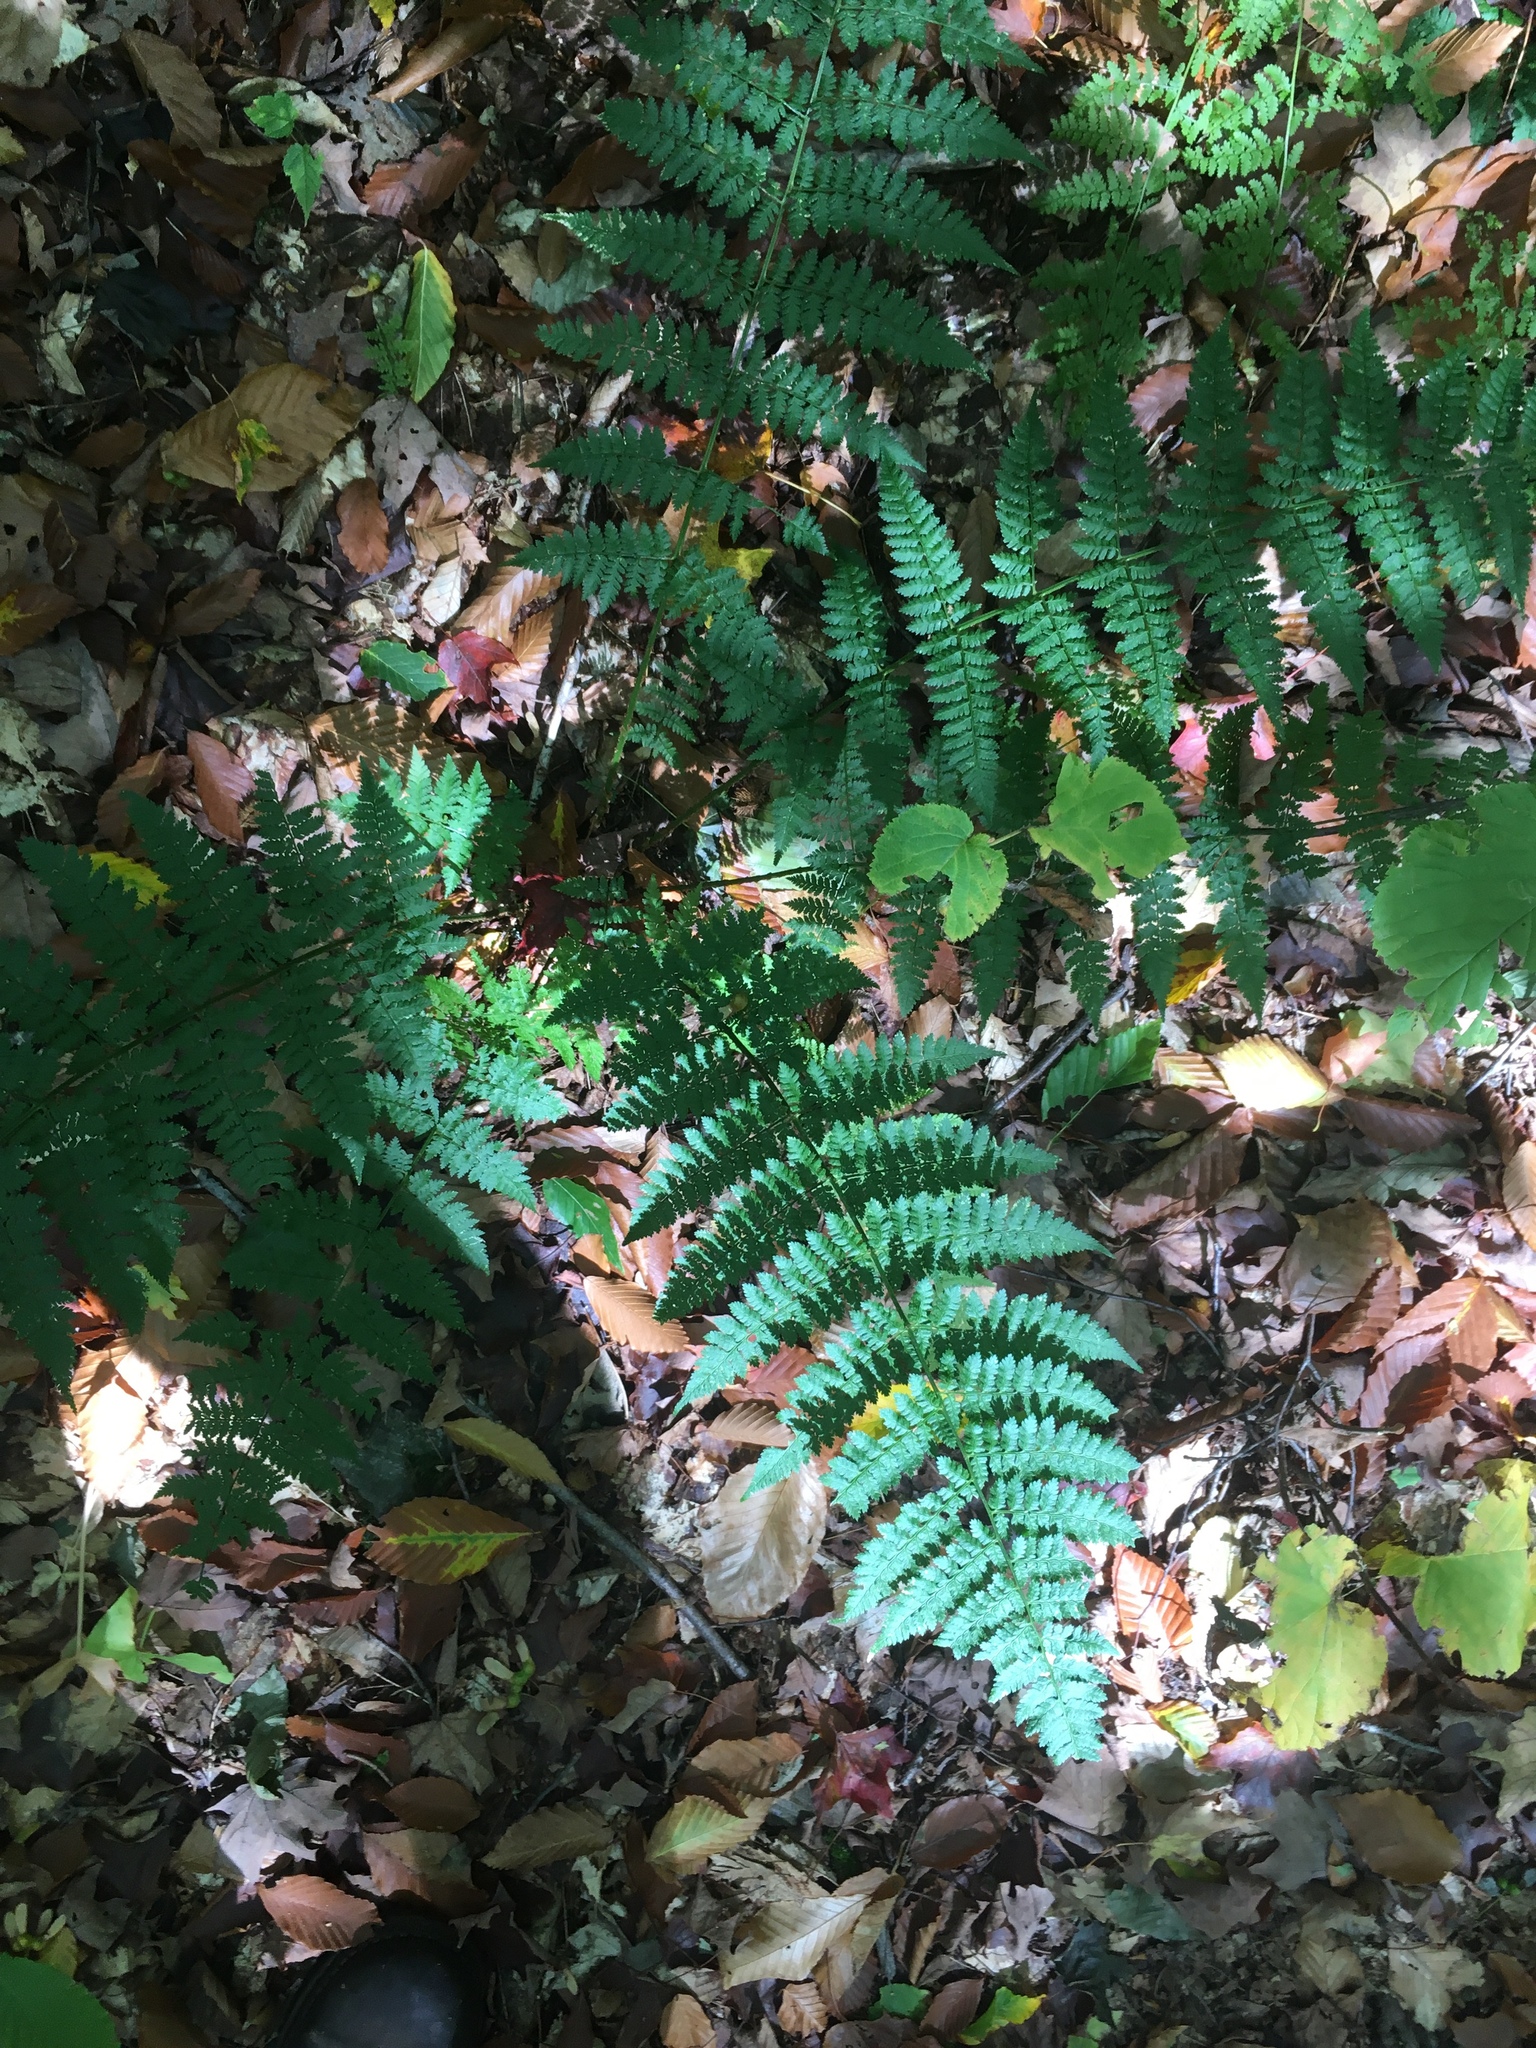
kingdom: Plantae
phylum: Tracheophyta
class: Polypodiopsida
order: Polypodiales
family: Dryopteridaceae
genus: Dryopteris
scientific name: Dryopteris intermedia
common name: Evergreen wood fern
